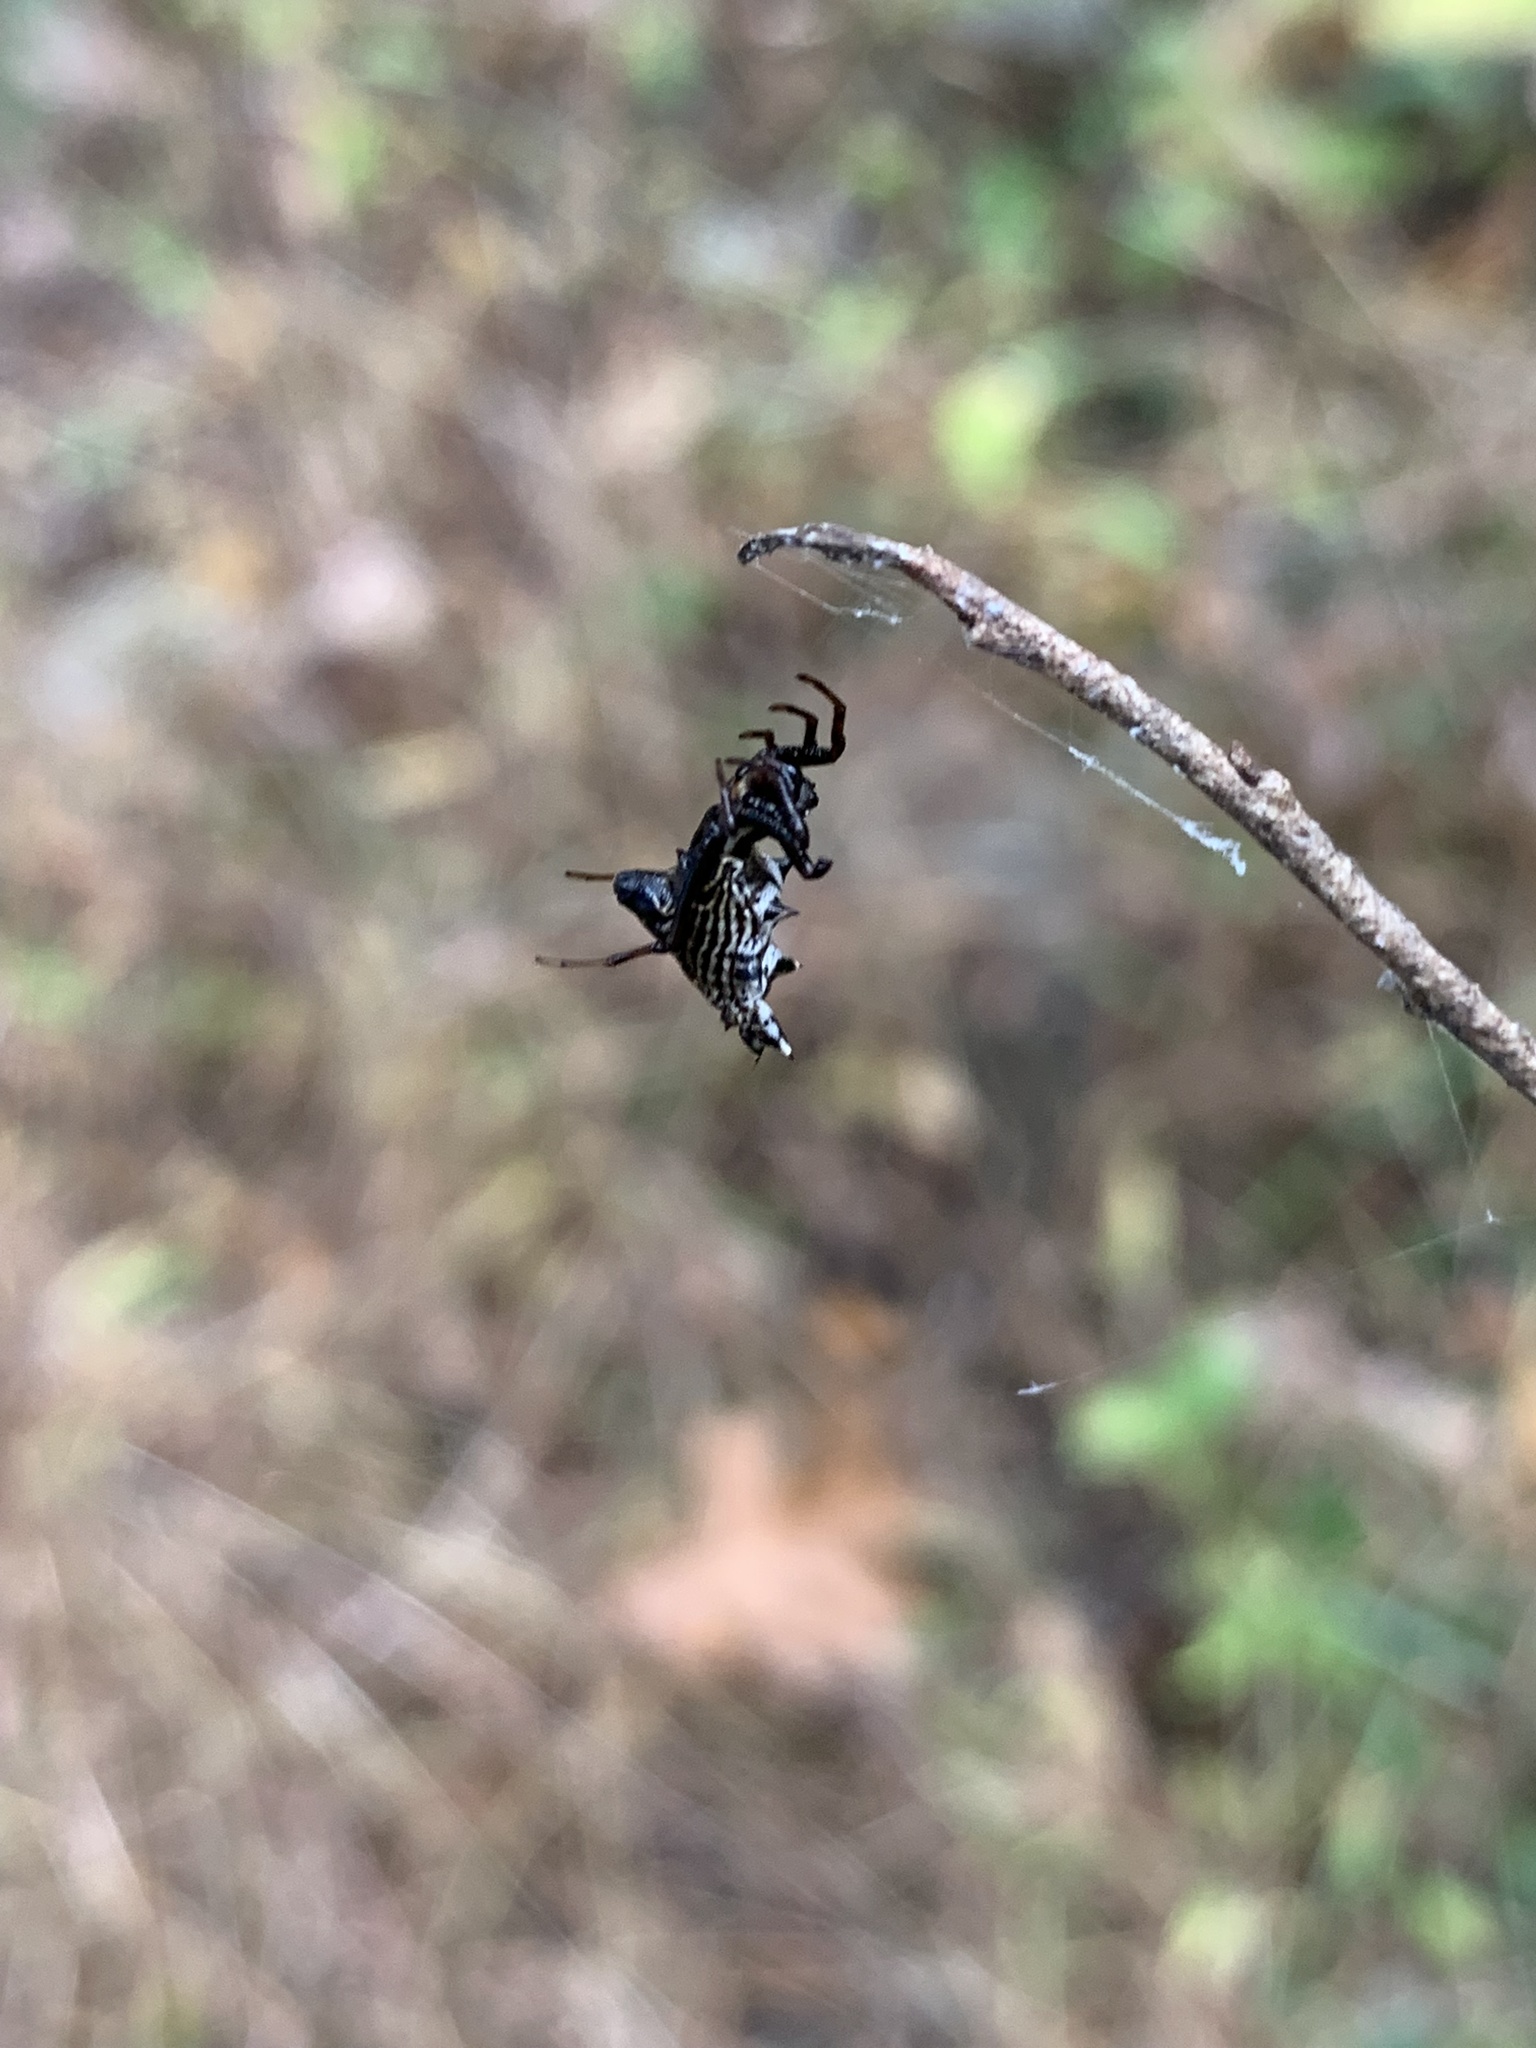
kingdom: Animalia
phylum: Arthropoda
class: Arachnida
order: Araneae
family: Araneidae
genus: Micrathena
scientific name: Micrathena gracilis
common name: Orb weavers
